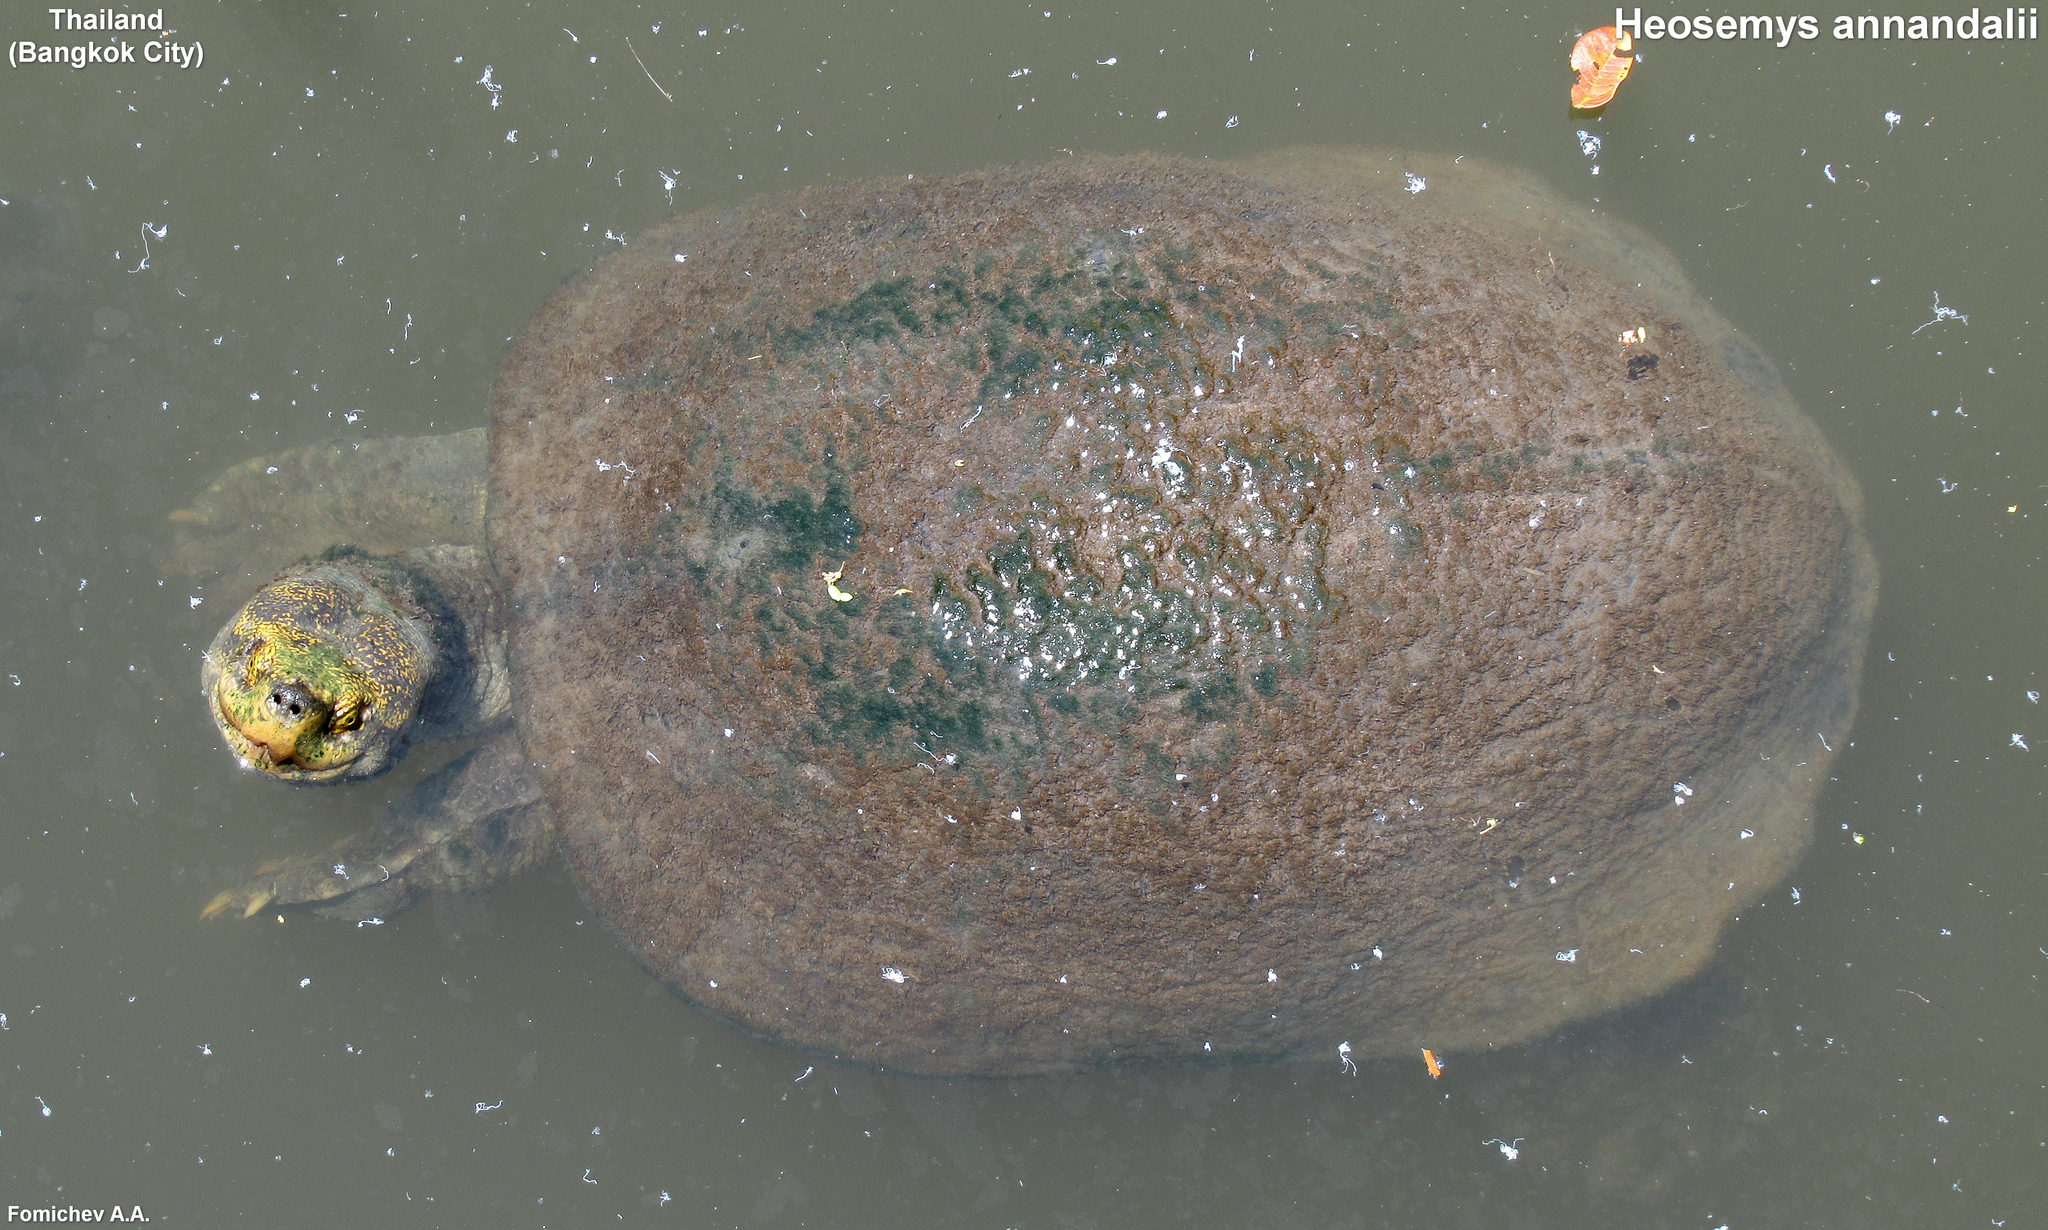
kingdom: Animalia
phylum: Chordata
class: Testudines
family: Geoemydidae
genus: Heosemys
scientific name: Heosemys annandalii
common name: Yellow-headed temple turtle
